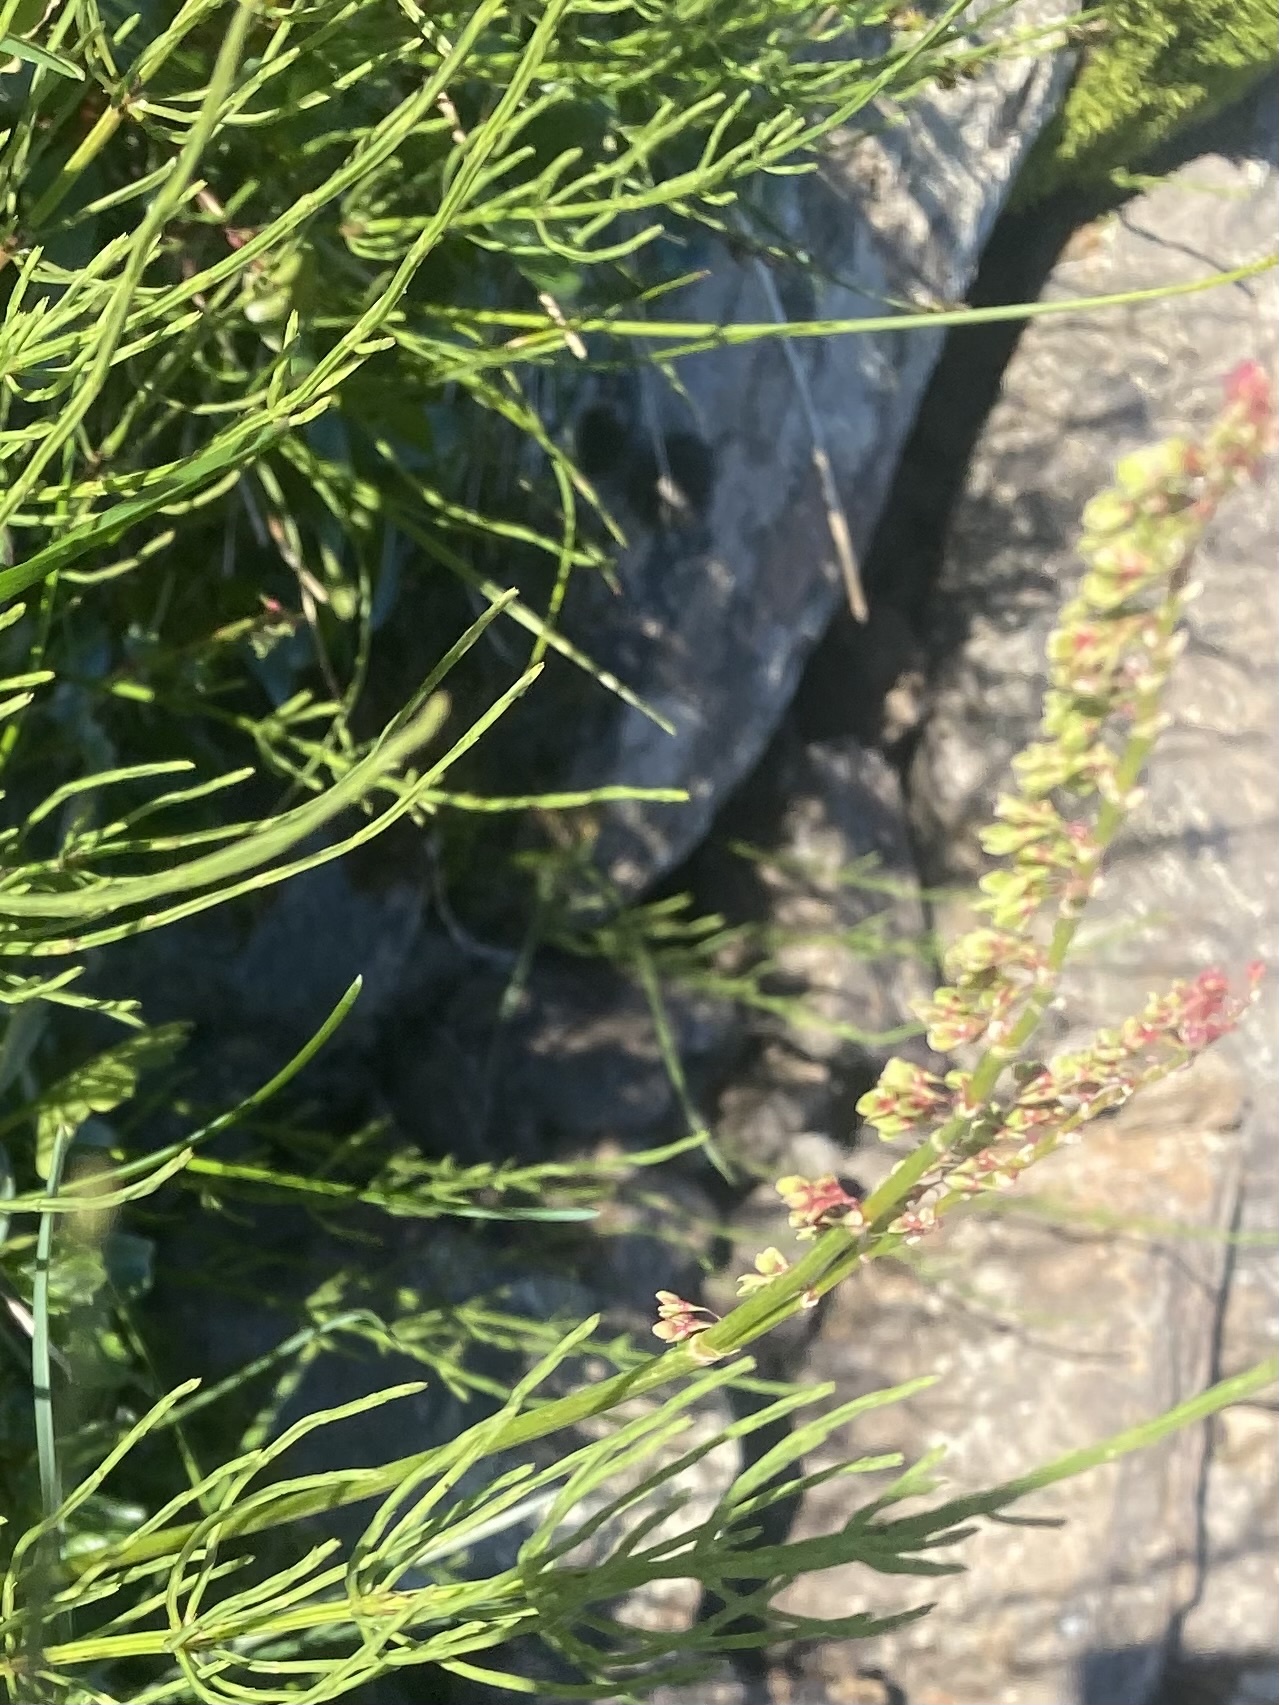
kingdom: Plantae
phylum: Tracheophyta
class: Magnoliopsida
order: Caryophyllales
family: Polygonaceae
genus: Oxyria
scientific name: Oxyria digyna
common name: Alpine mountain-sorrel
